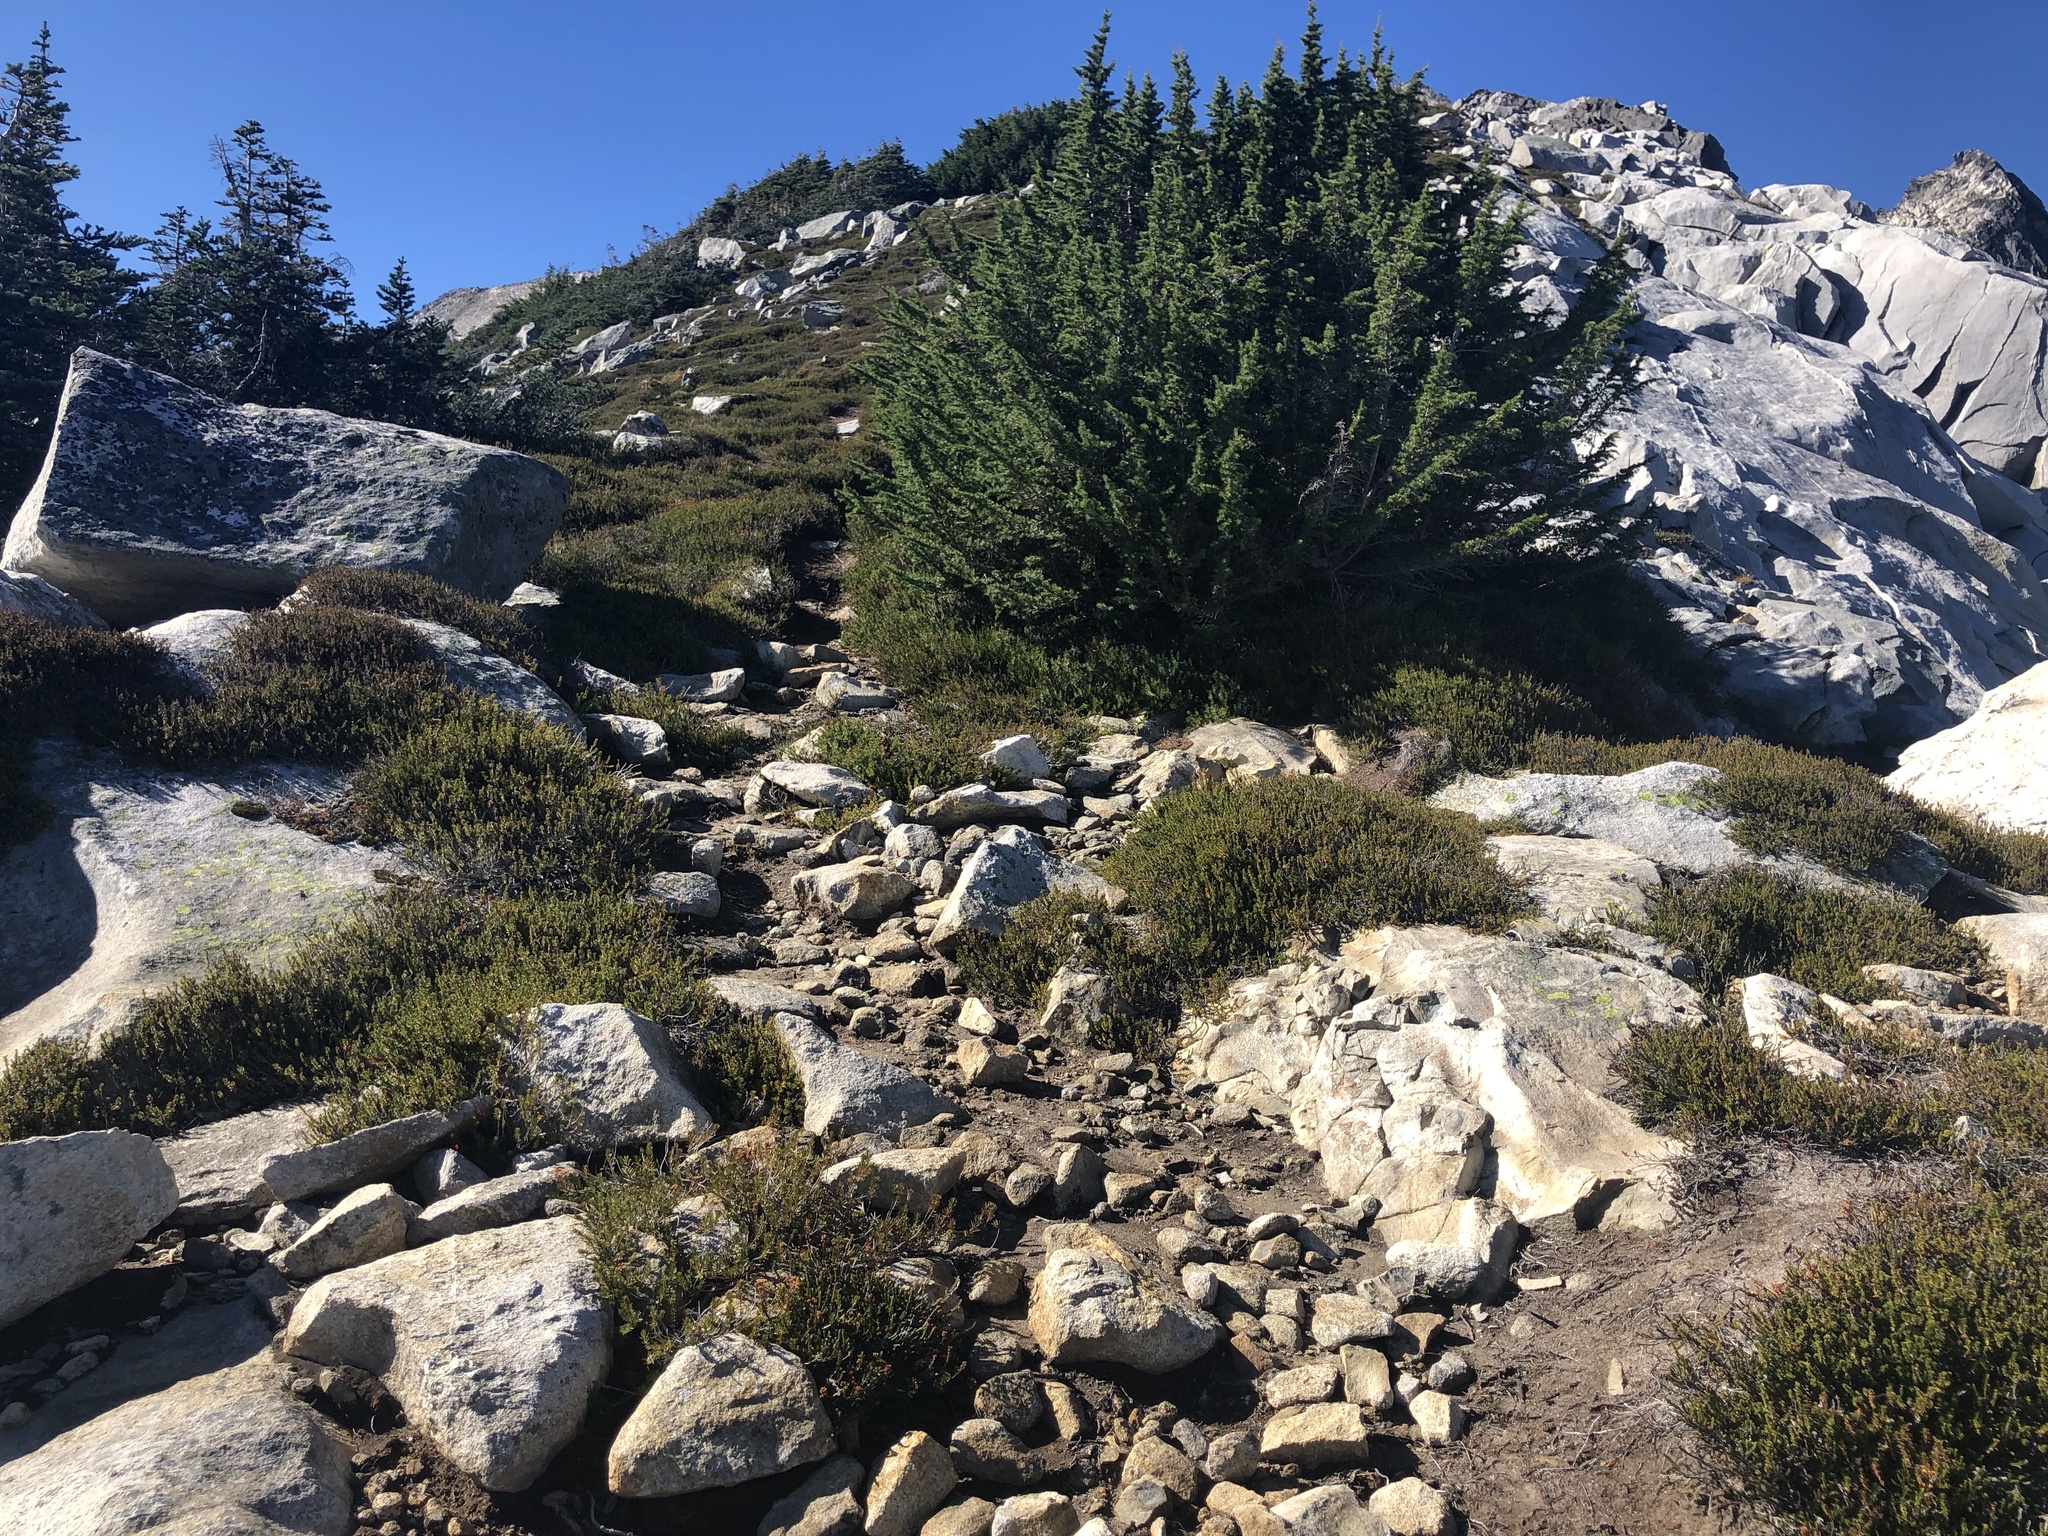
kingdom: Plantae
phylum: Tracheophyta
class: Pinopsida
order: Pinales
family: Pinaceae
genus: Tsuga
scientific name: Tsuga mertensiana
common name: Mountain hemlock
